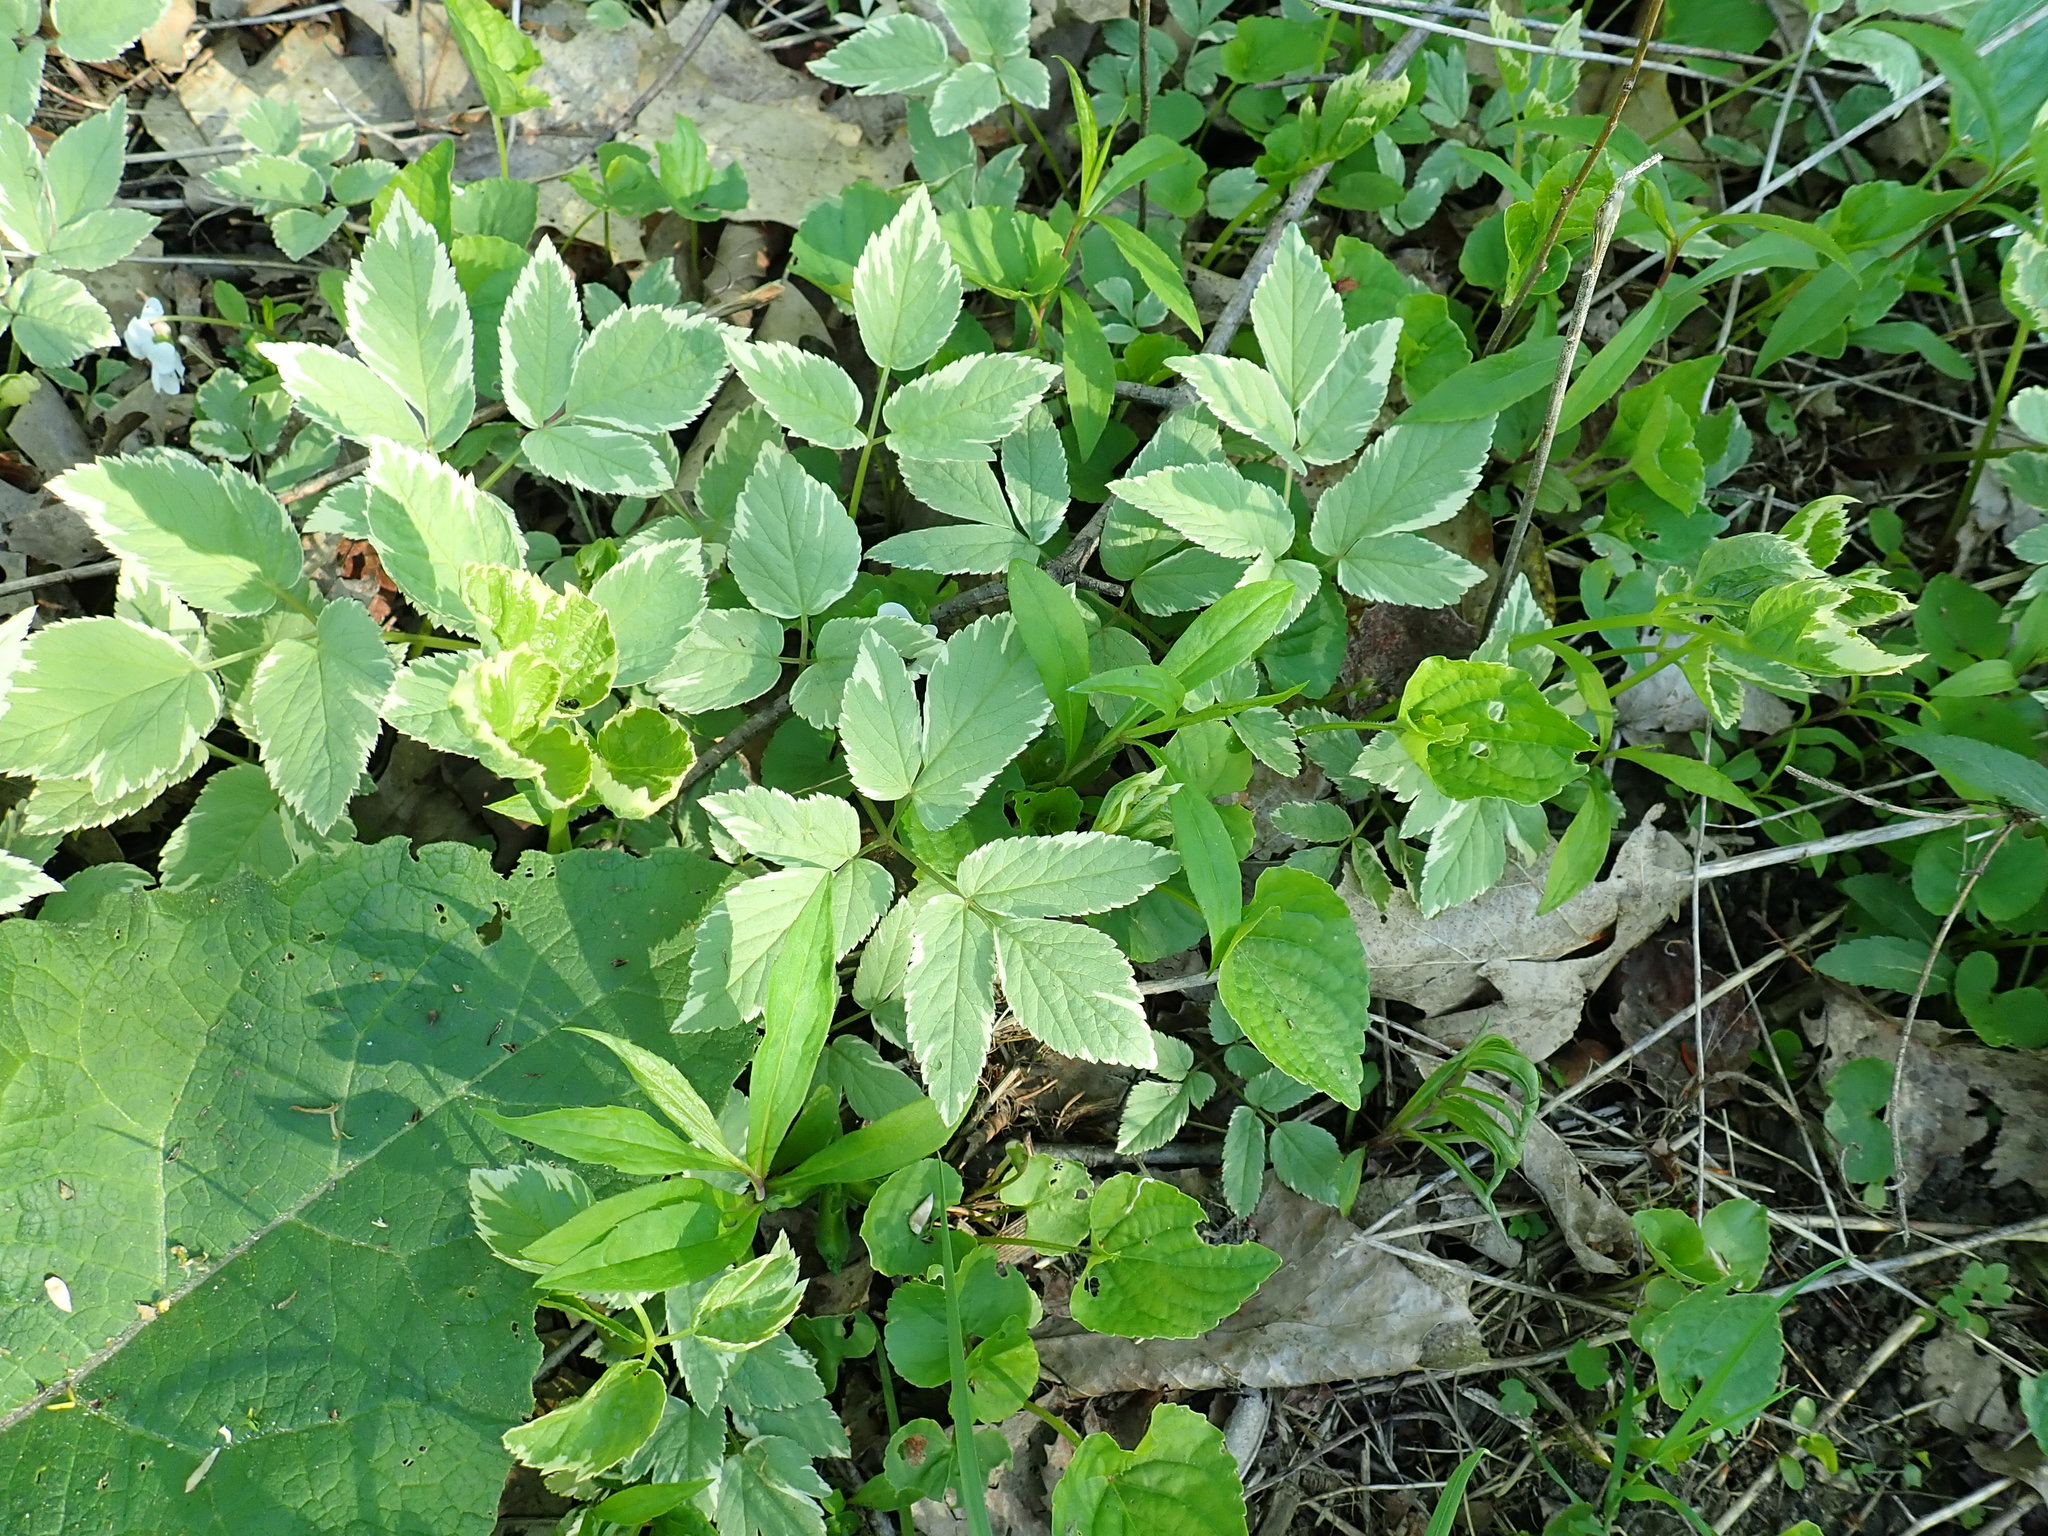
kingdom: Plantae
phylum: Tracheophyta
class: Magnoliopsida
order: Apiales
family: Apiaceae
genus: Aegopodium
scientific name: Aegopodium podagraria
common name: Ground-elder
